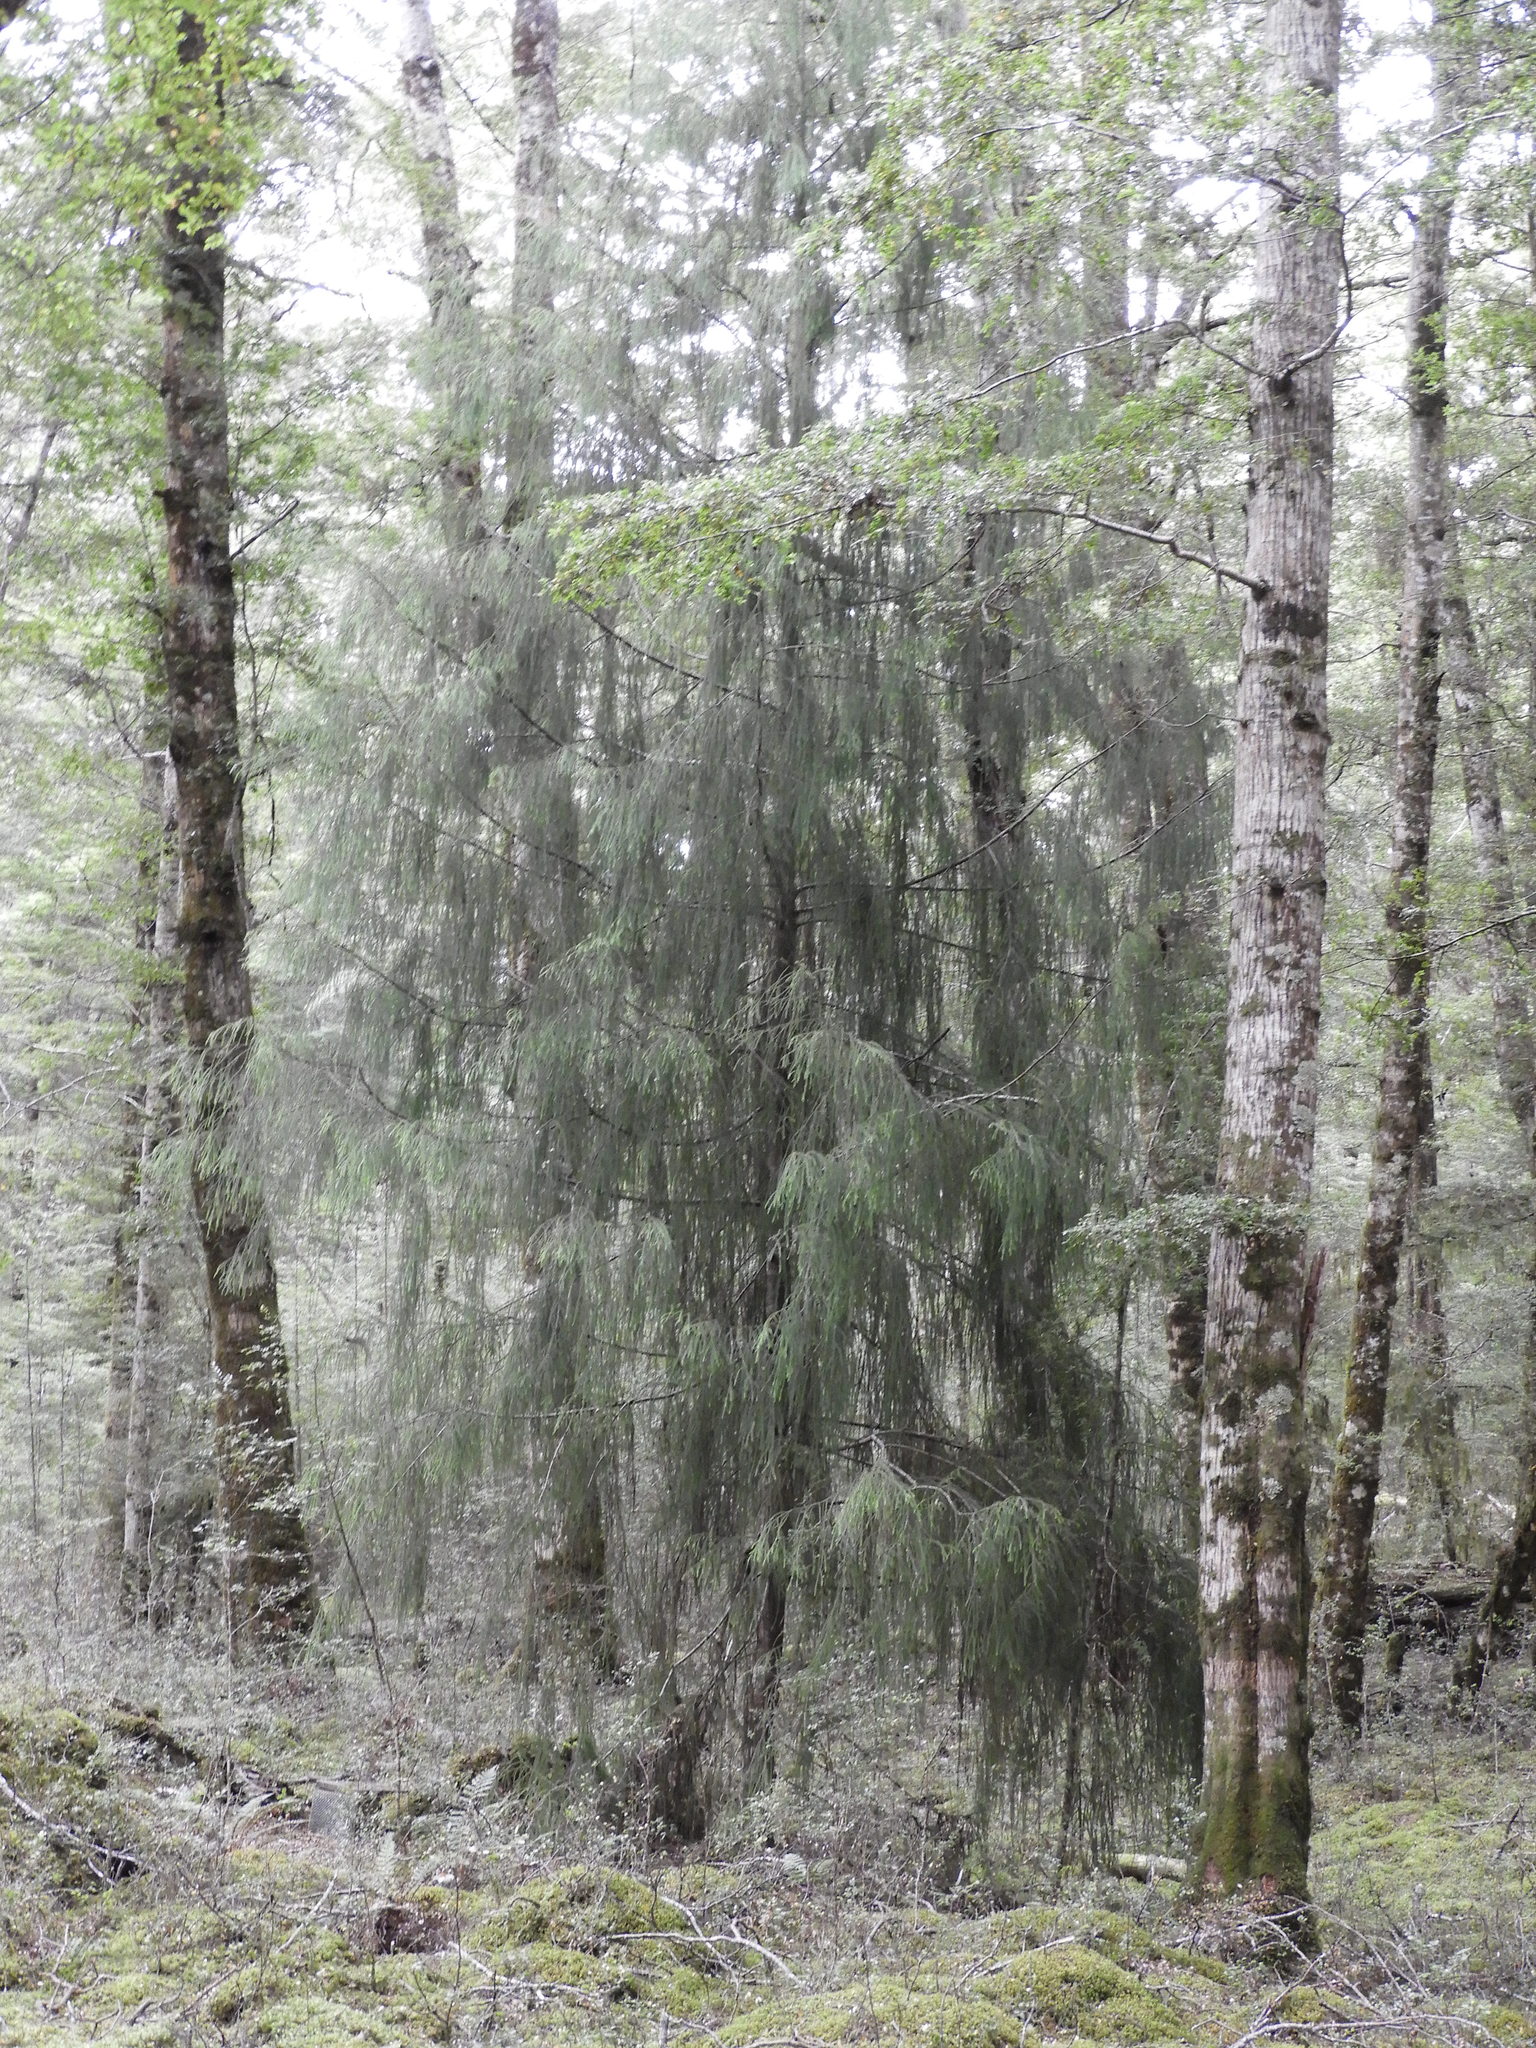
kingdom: Plantae
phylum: Tracheophyta
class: Pinopsida
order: Pinales
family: Podocarpaceae
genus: Dacrydium
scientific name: Dacrydium cupressinum
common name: Red pine
